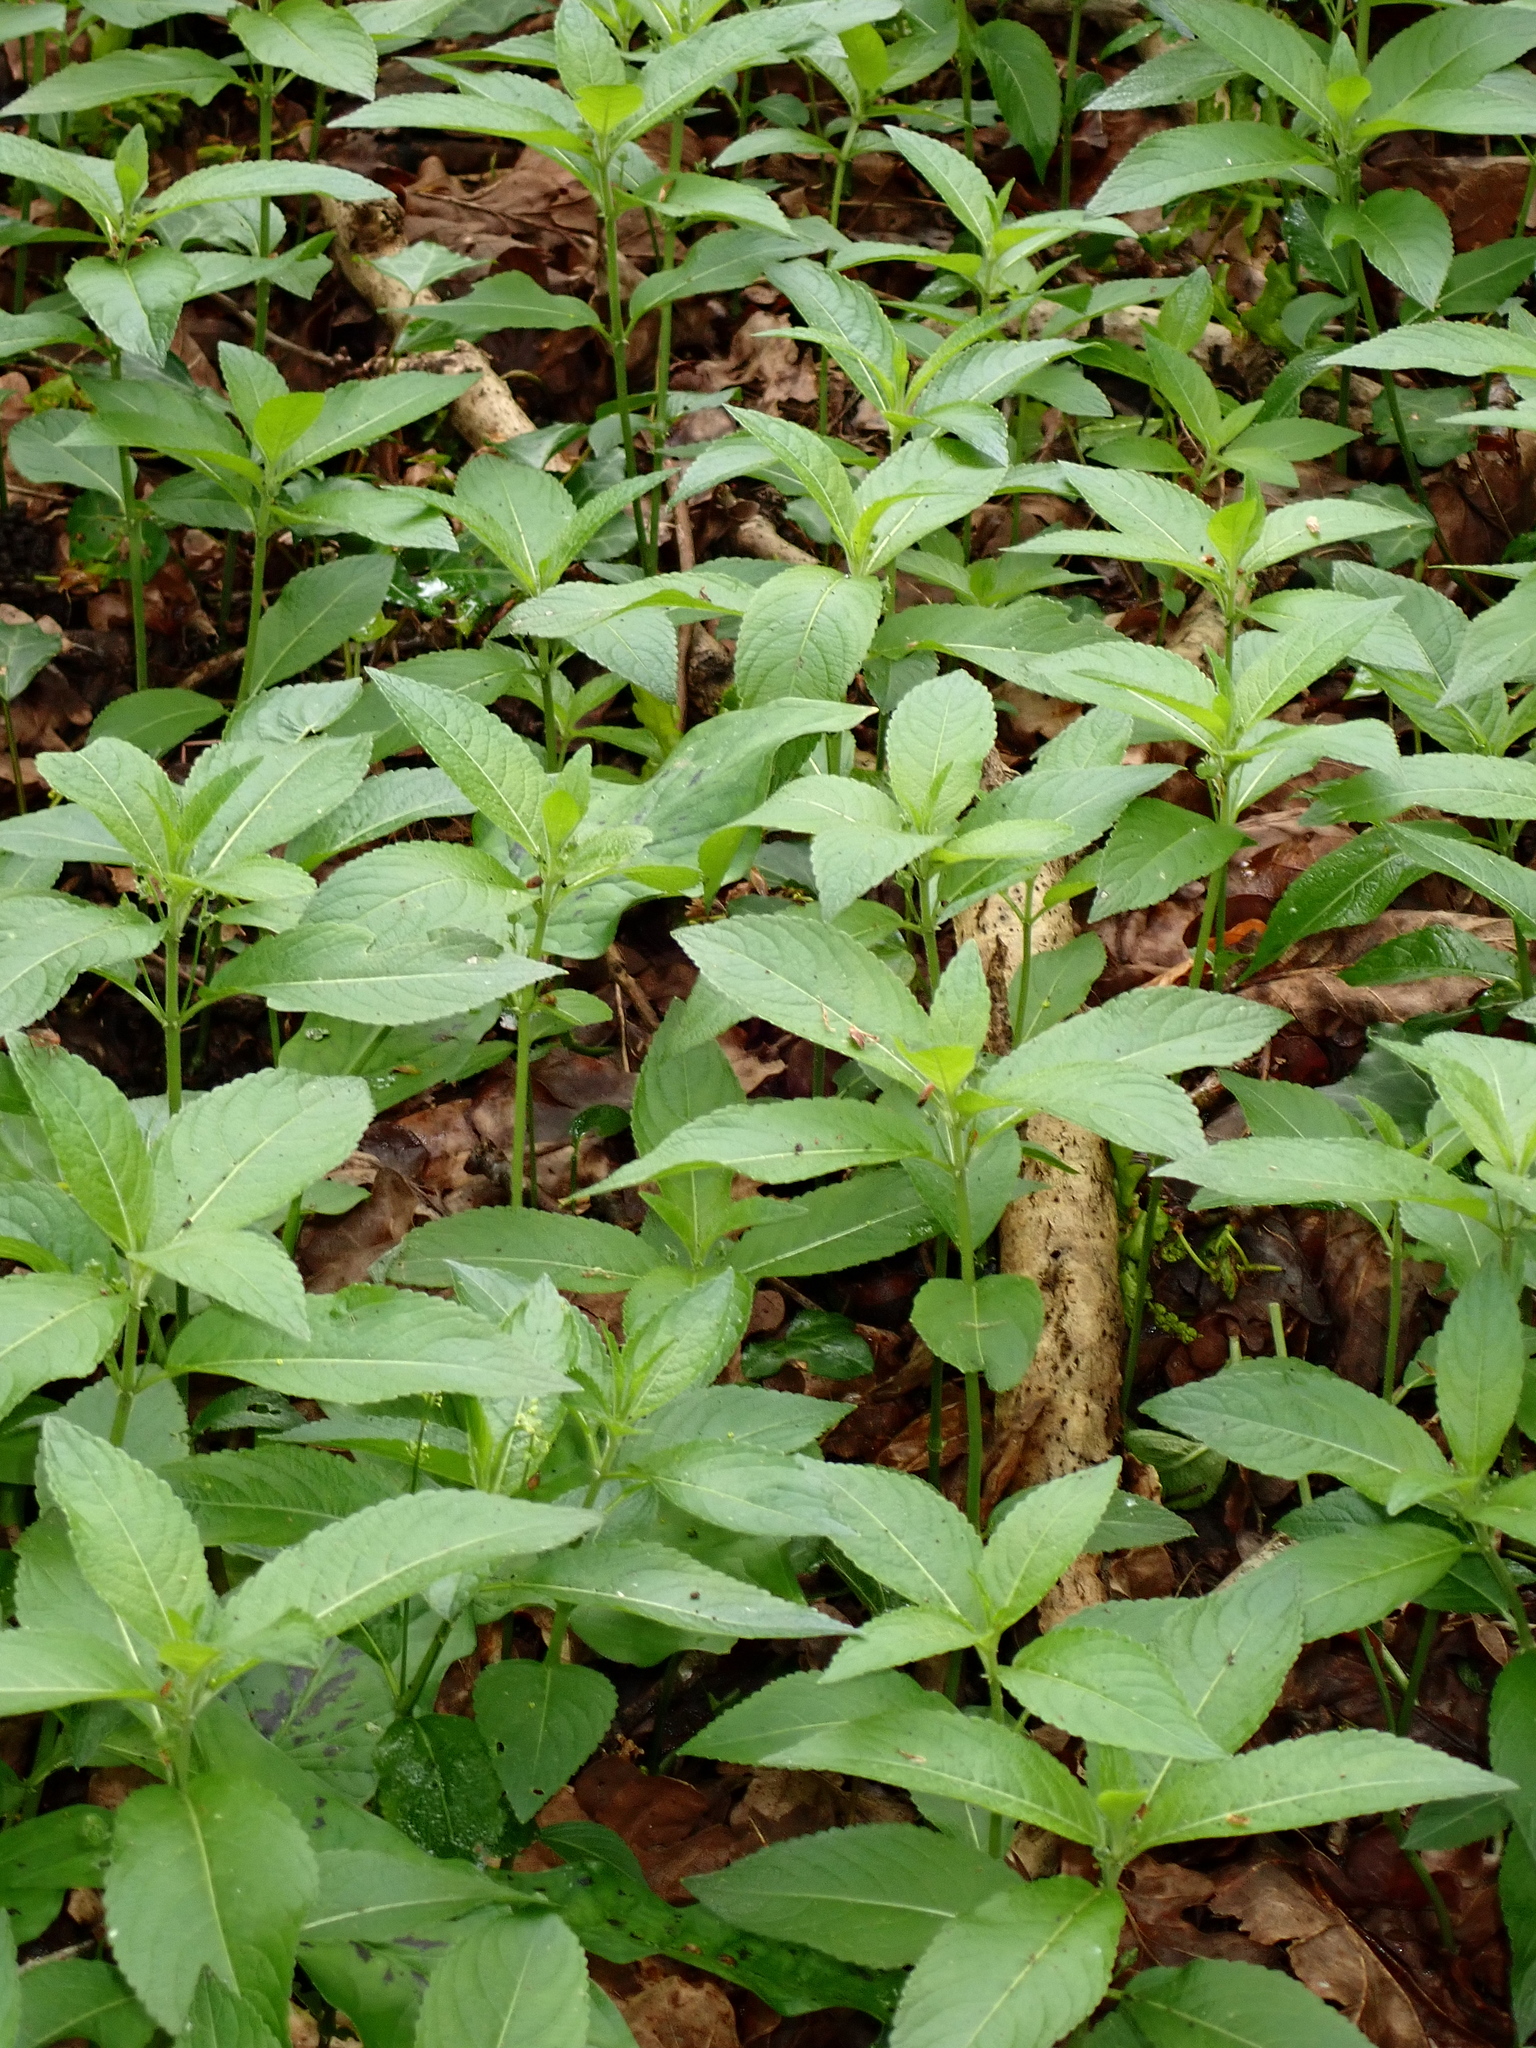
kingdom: Plantae
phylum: Tracheophyta
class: Magnoliopsida
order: Malpighiales
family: Euphorbiaceae
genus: Mercurialis
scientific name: Mercurialis perennis
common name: Dog mercury
